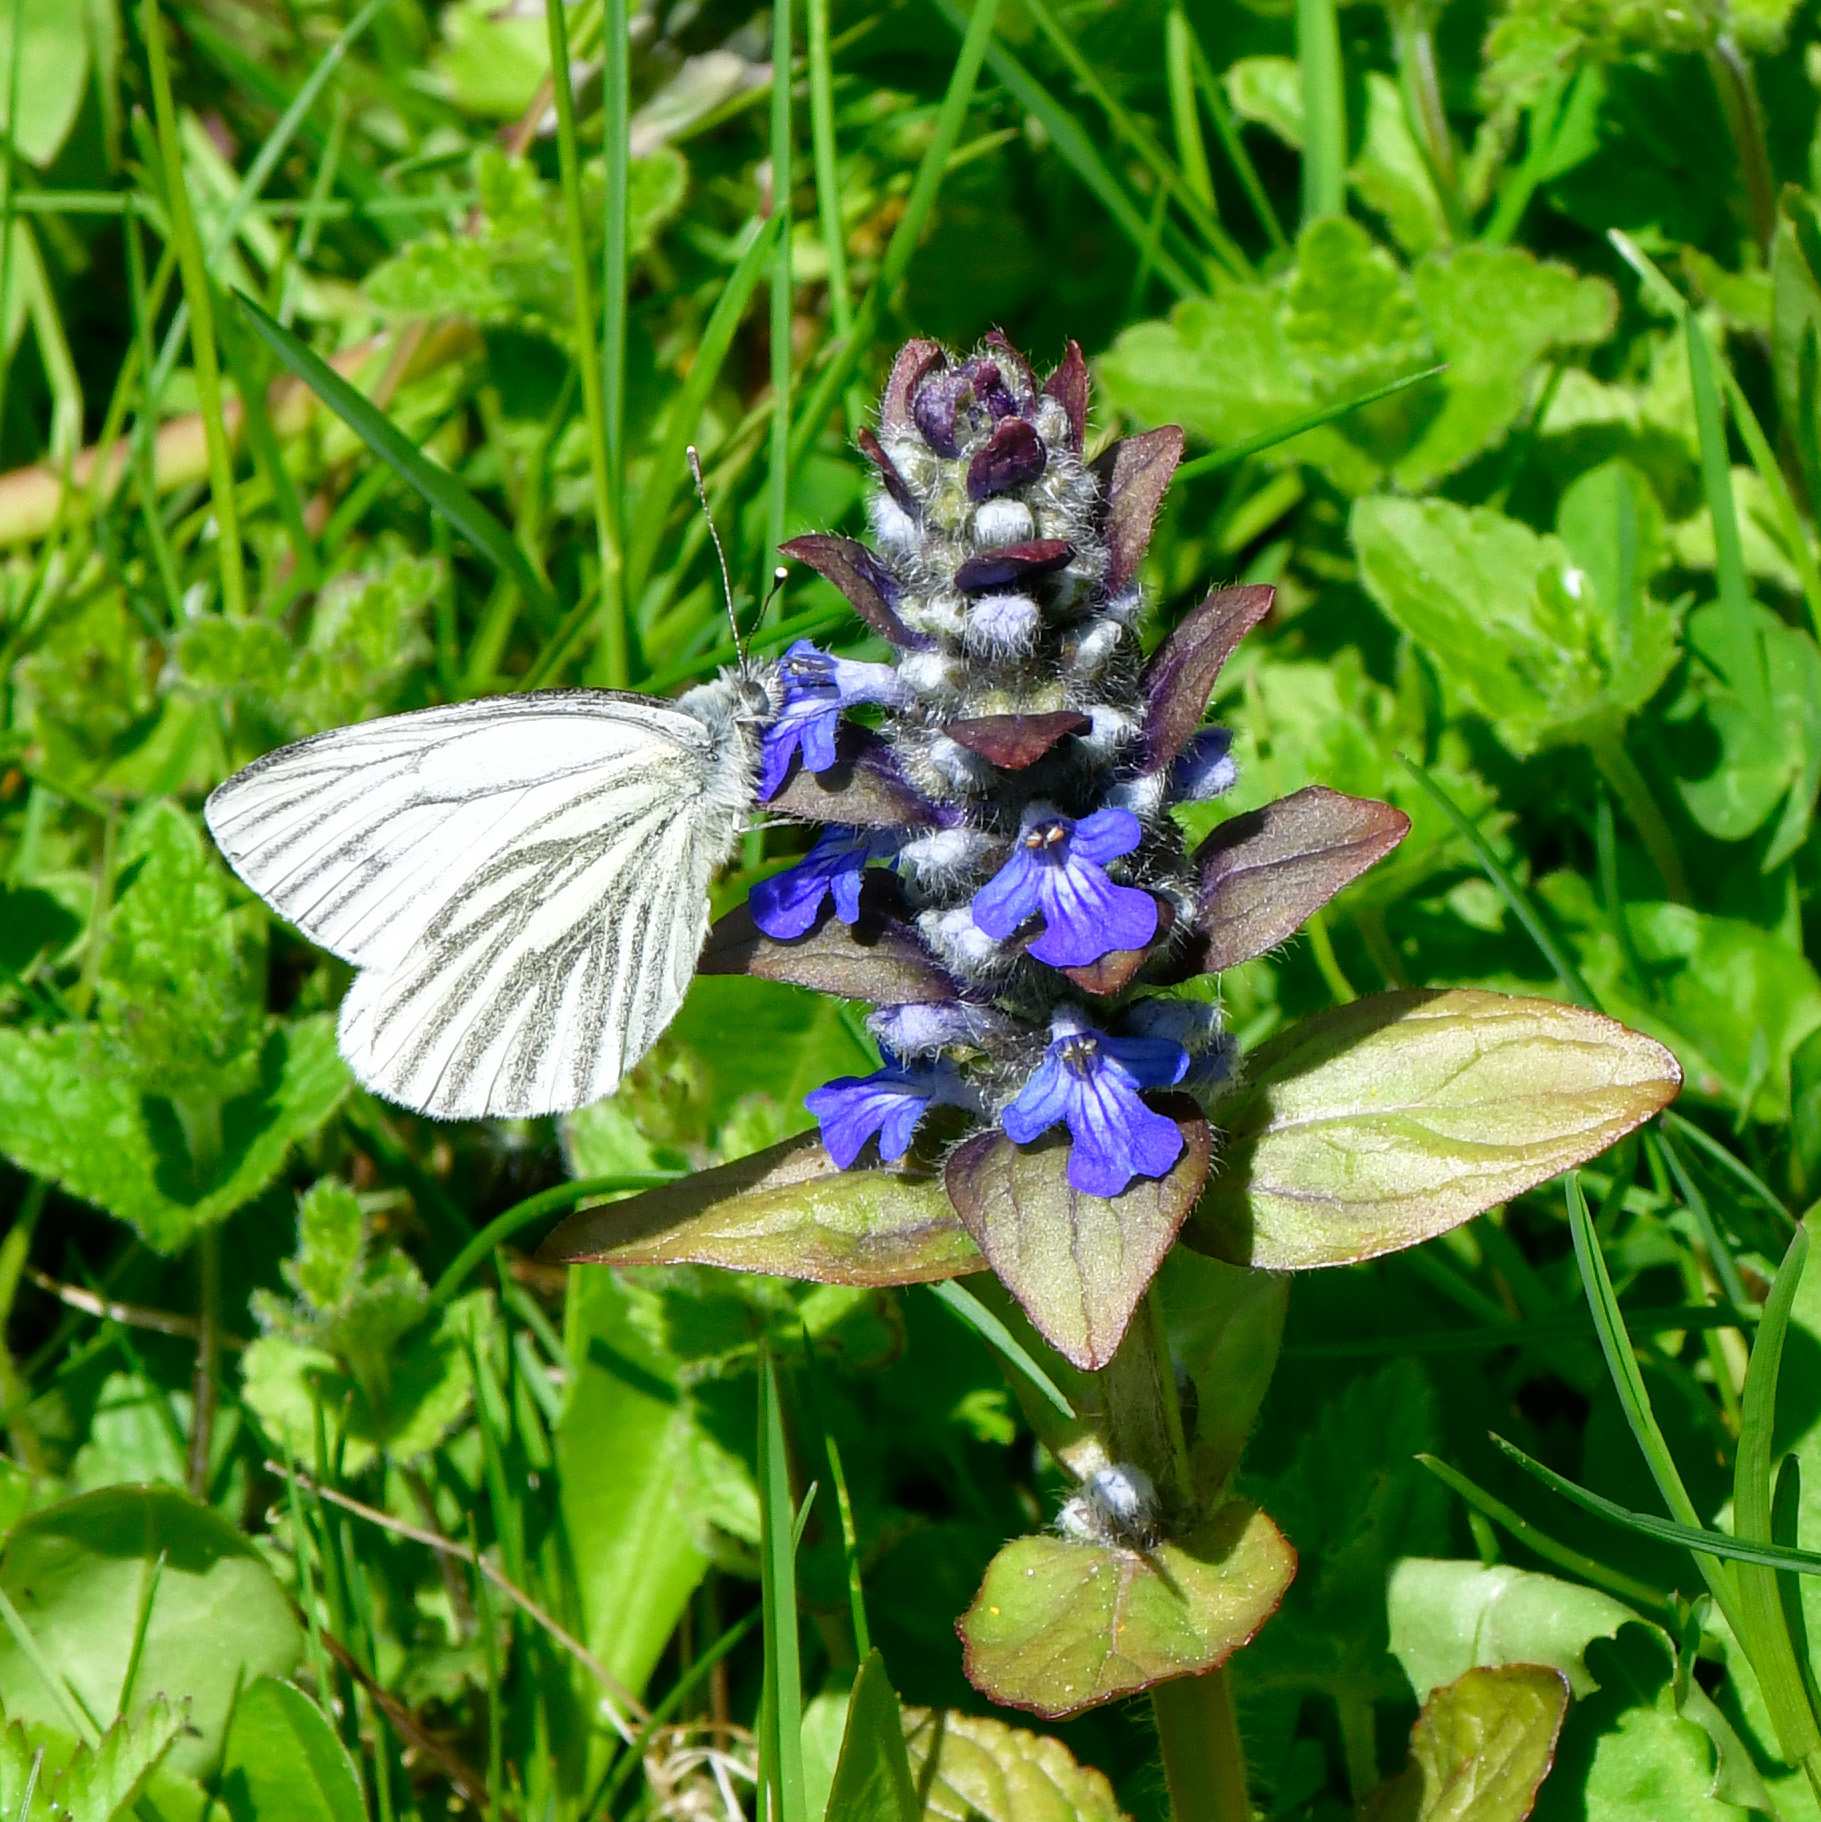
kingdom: Animalia
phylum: Arthropoda
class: Insecta
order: Lepidoptera
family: Pieridae
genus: Pieris
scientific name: Pieris napi
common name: Green-veined white
